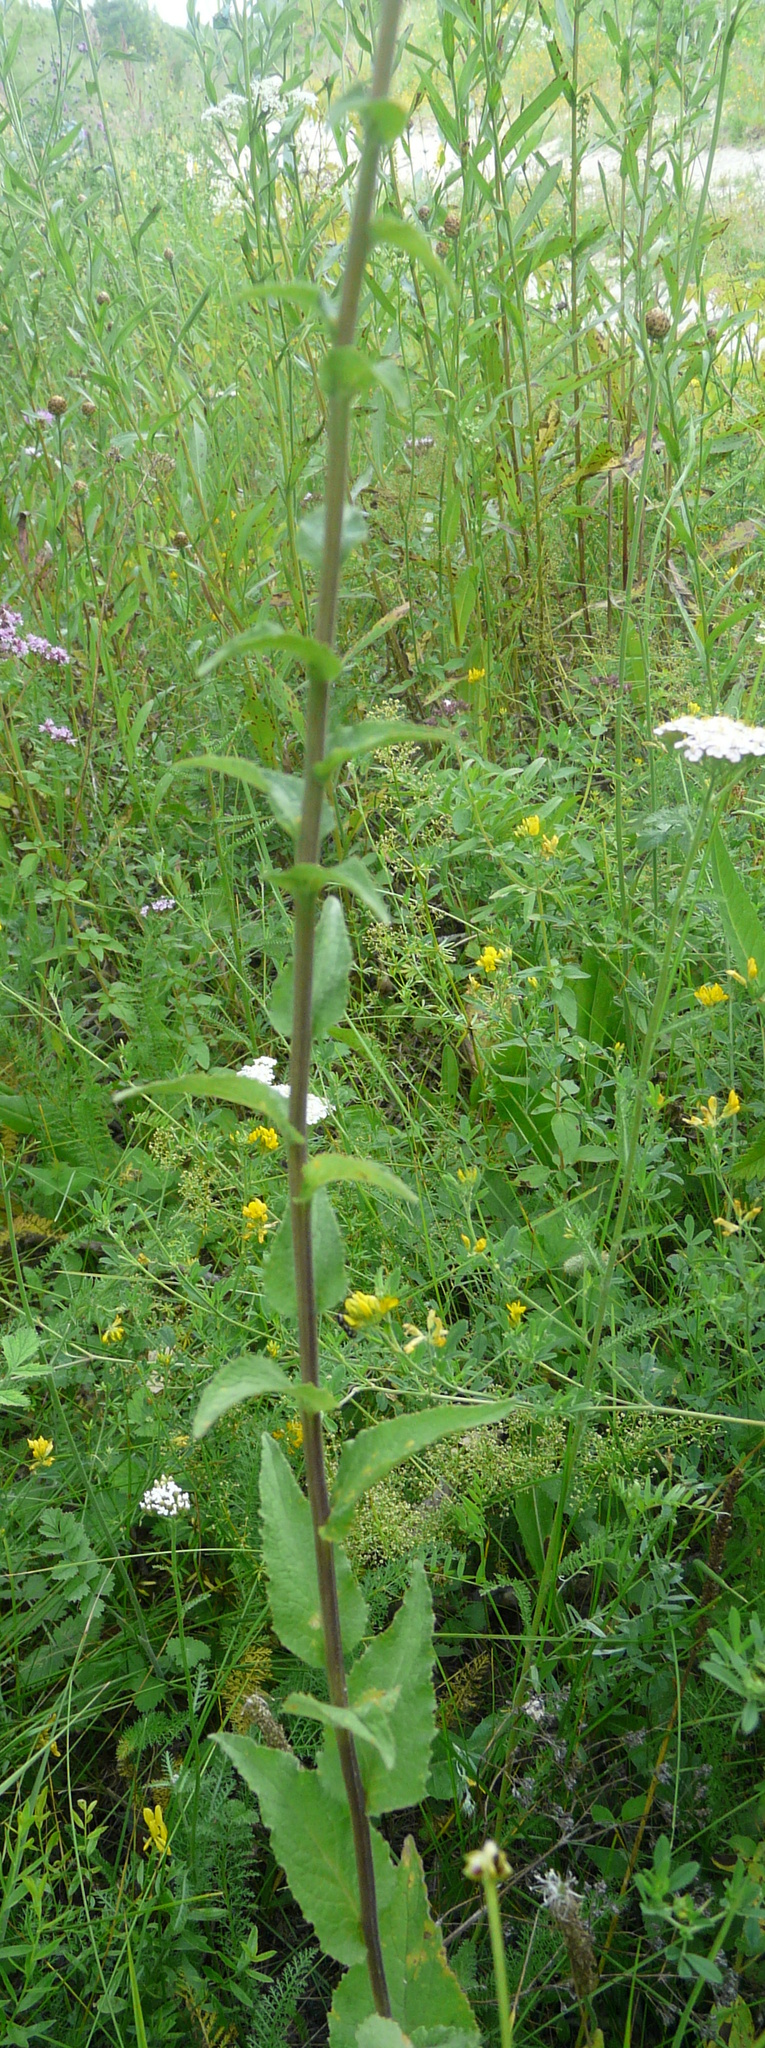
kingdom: Plantae
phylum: Tracheophyta
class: Magnoliopsida
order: Asterales
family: Campanulaceae
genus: Campanula
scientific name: Campanula bononiensis
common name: Pale bellflower
